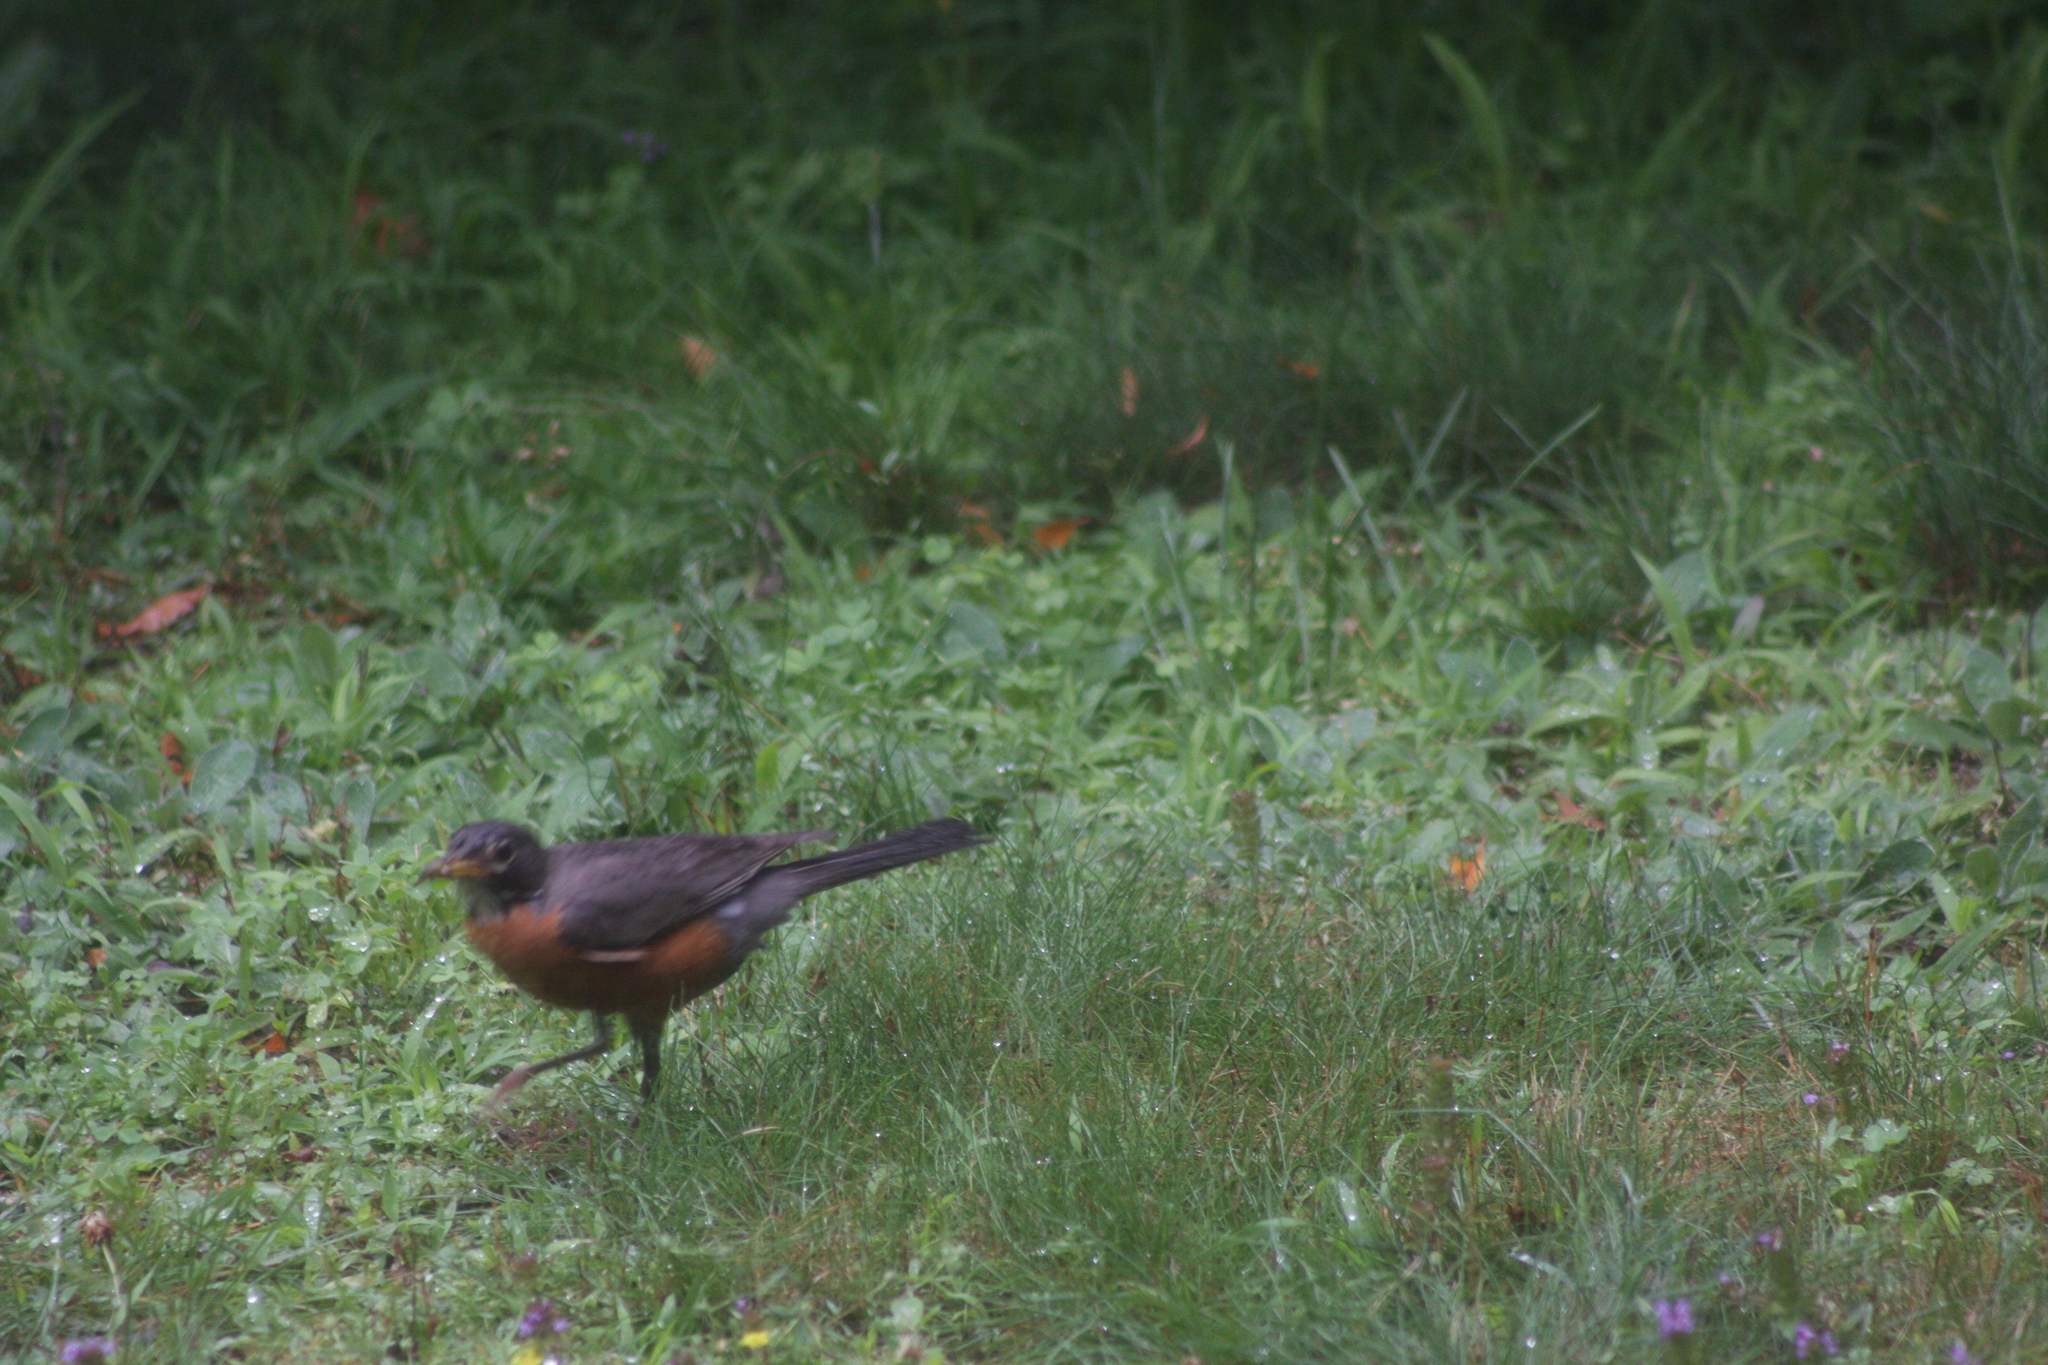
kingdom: Animalia
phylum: Chordata
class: Aves
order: Passeriformes
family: Turdidae
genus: Turdus
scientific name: Turdus migratorius
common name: American robin
